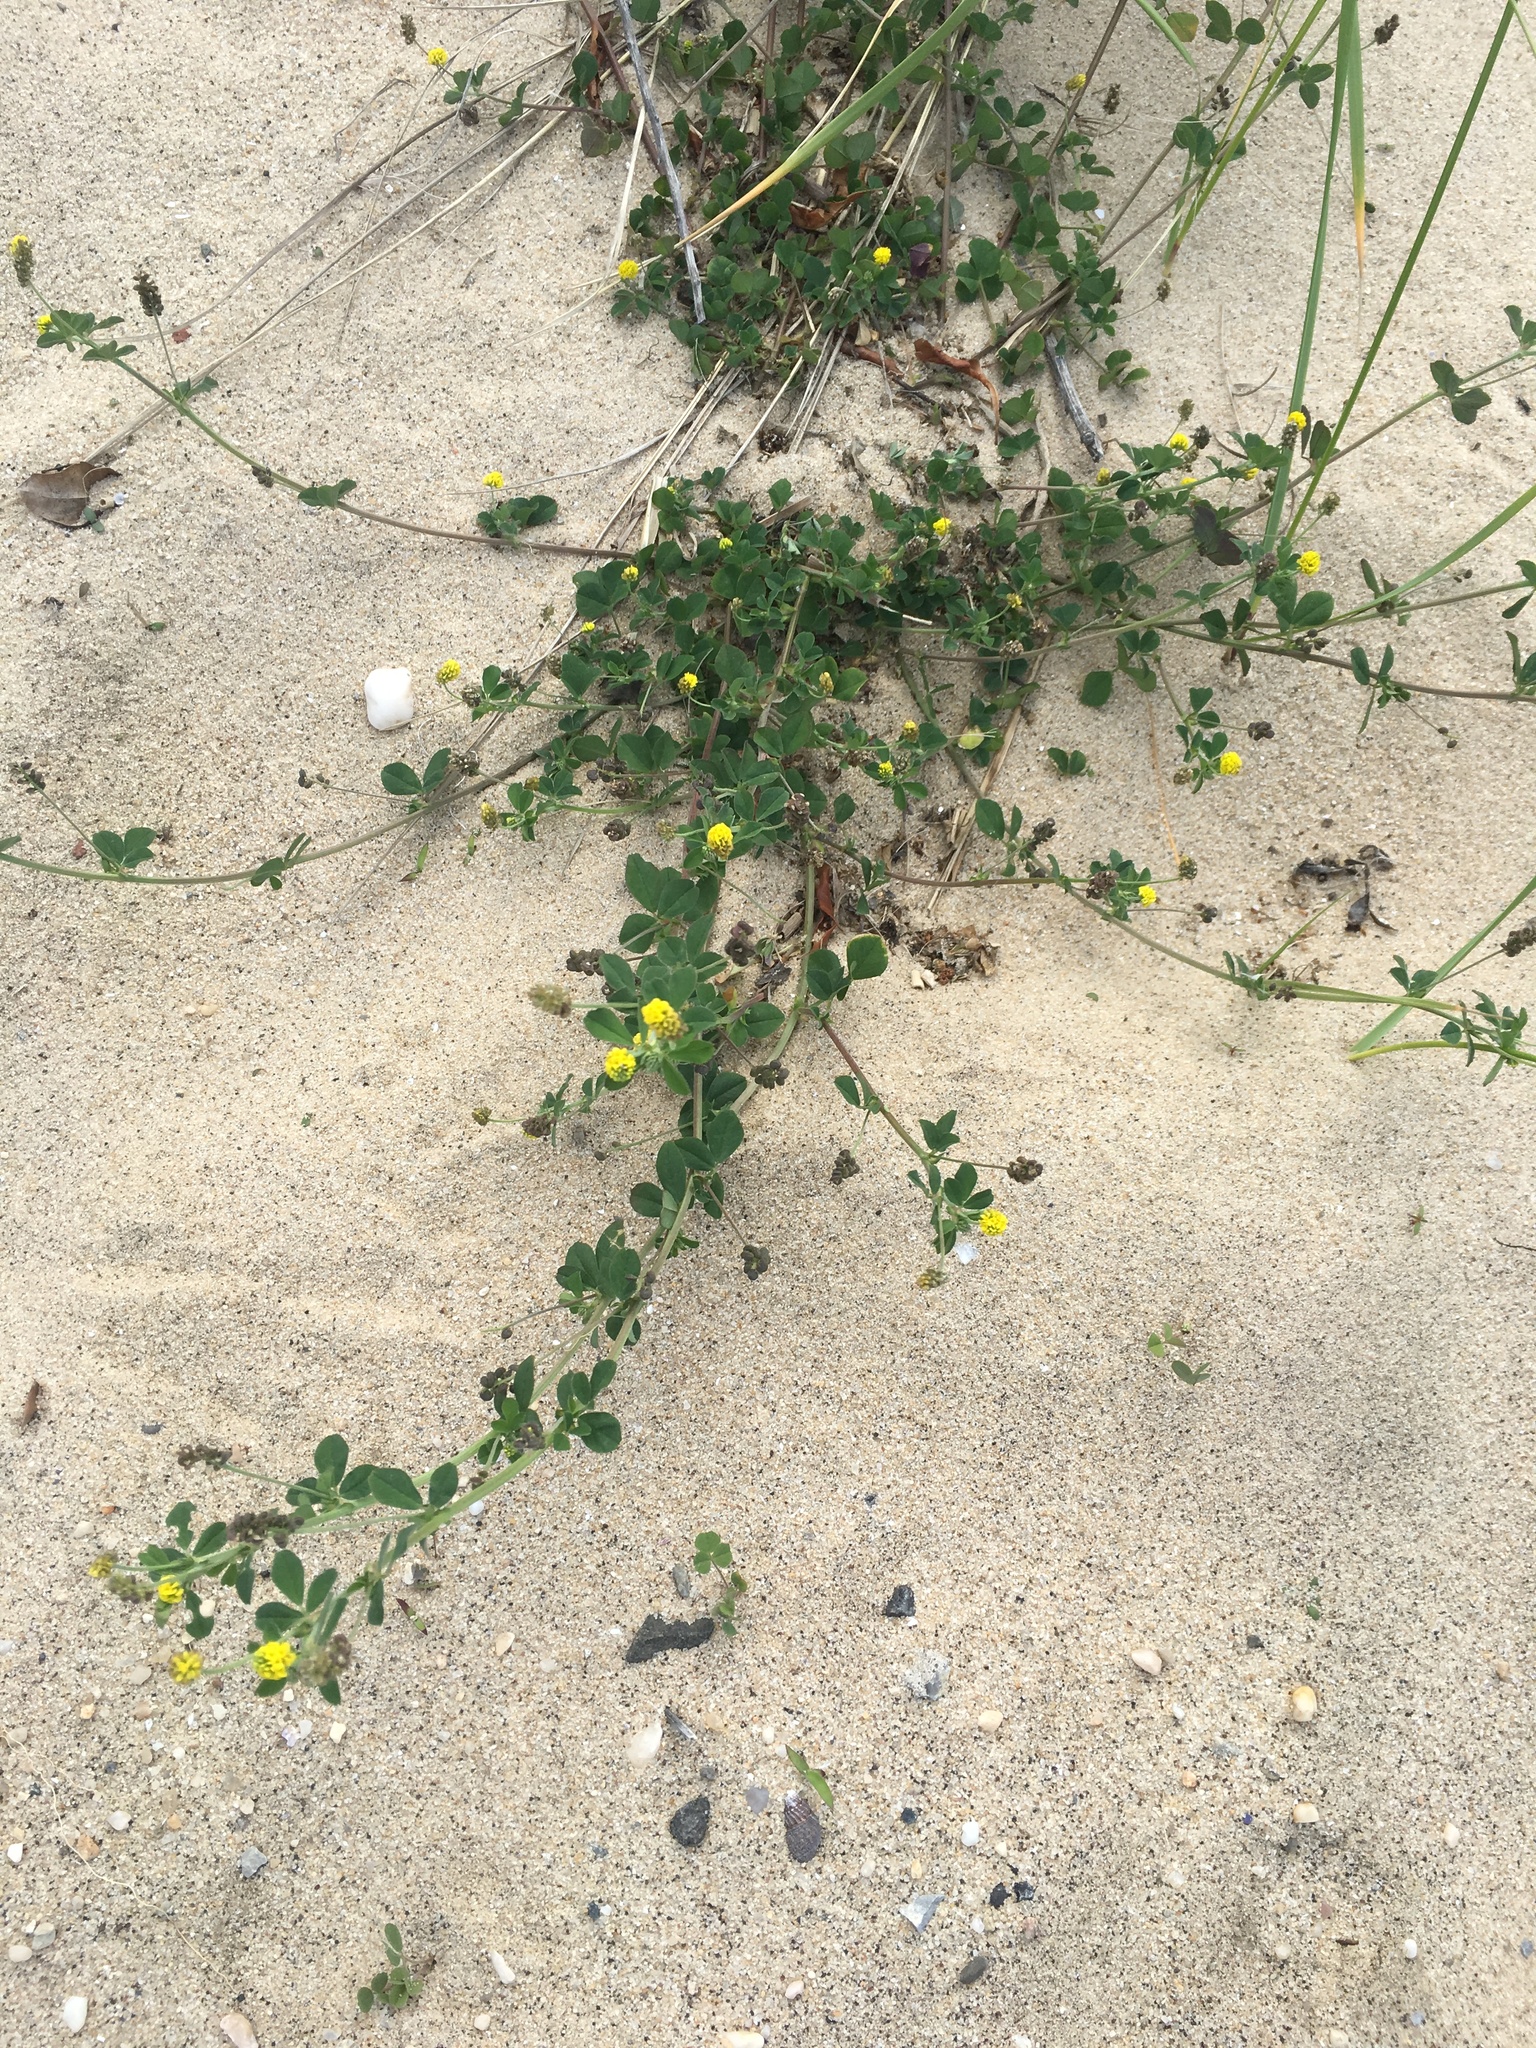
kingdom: Plantae
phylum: Tracheophyta
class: Magnoliopsida
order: Fabales
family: Fabaceae
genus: Medicago
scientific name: Medicago lupulina
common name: Black medick
